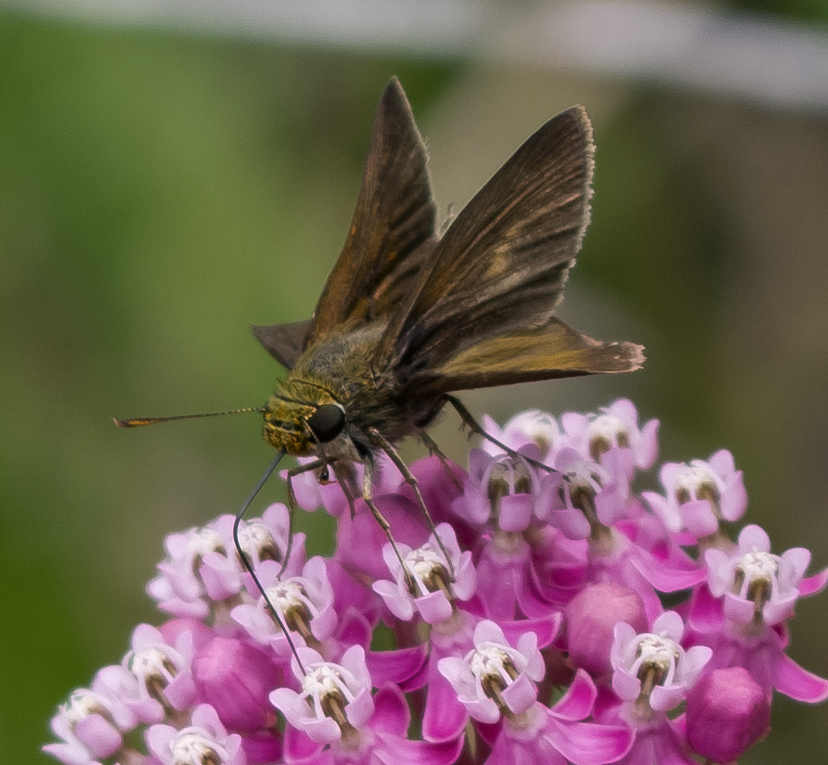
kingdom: Animalia
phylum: Arthropoda
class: Insecta
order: Lepidoptera
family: Hesperiidae
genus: Euphyes
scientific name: Euphyes vestris
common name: Dun skipper
